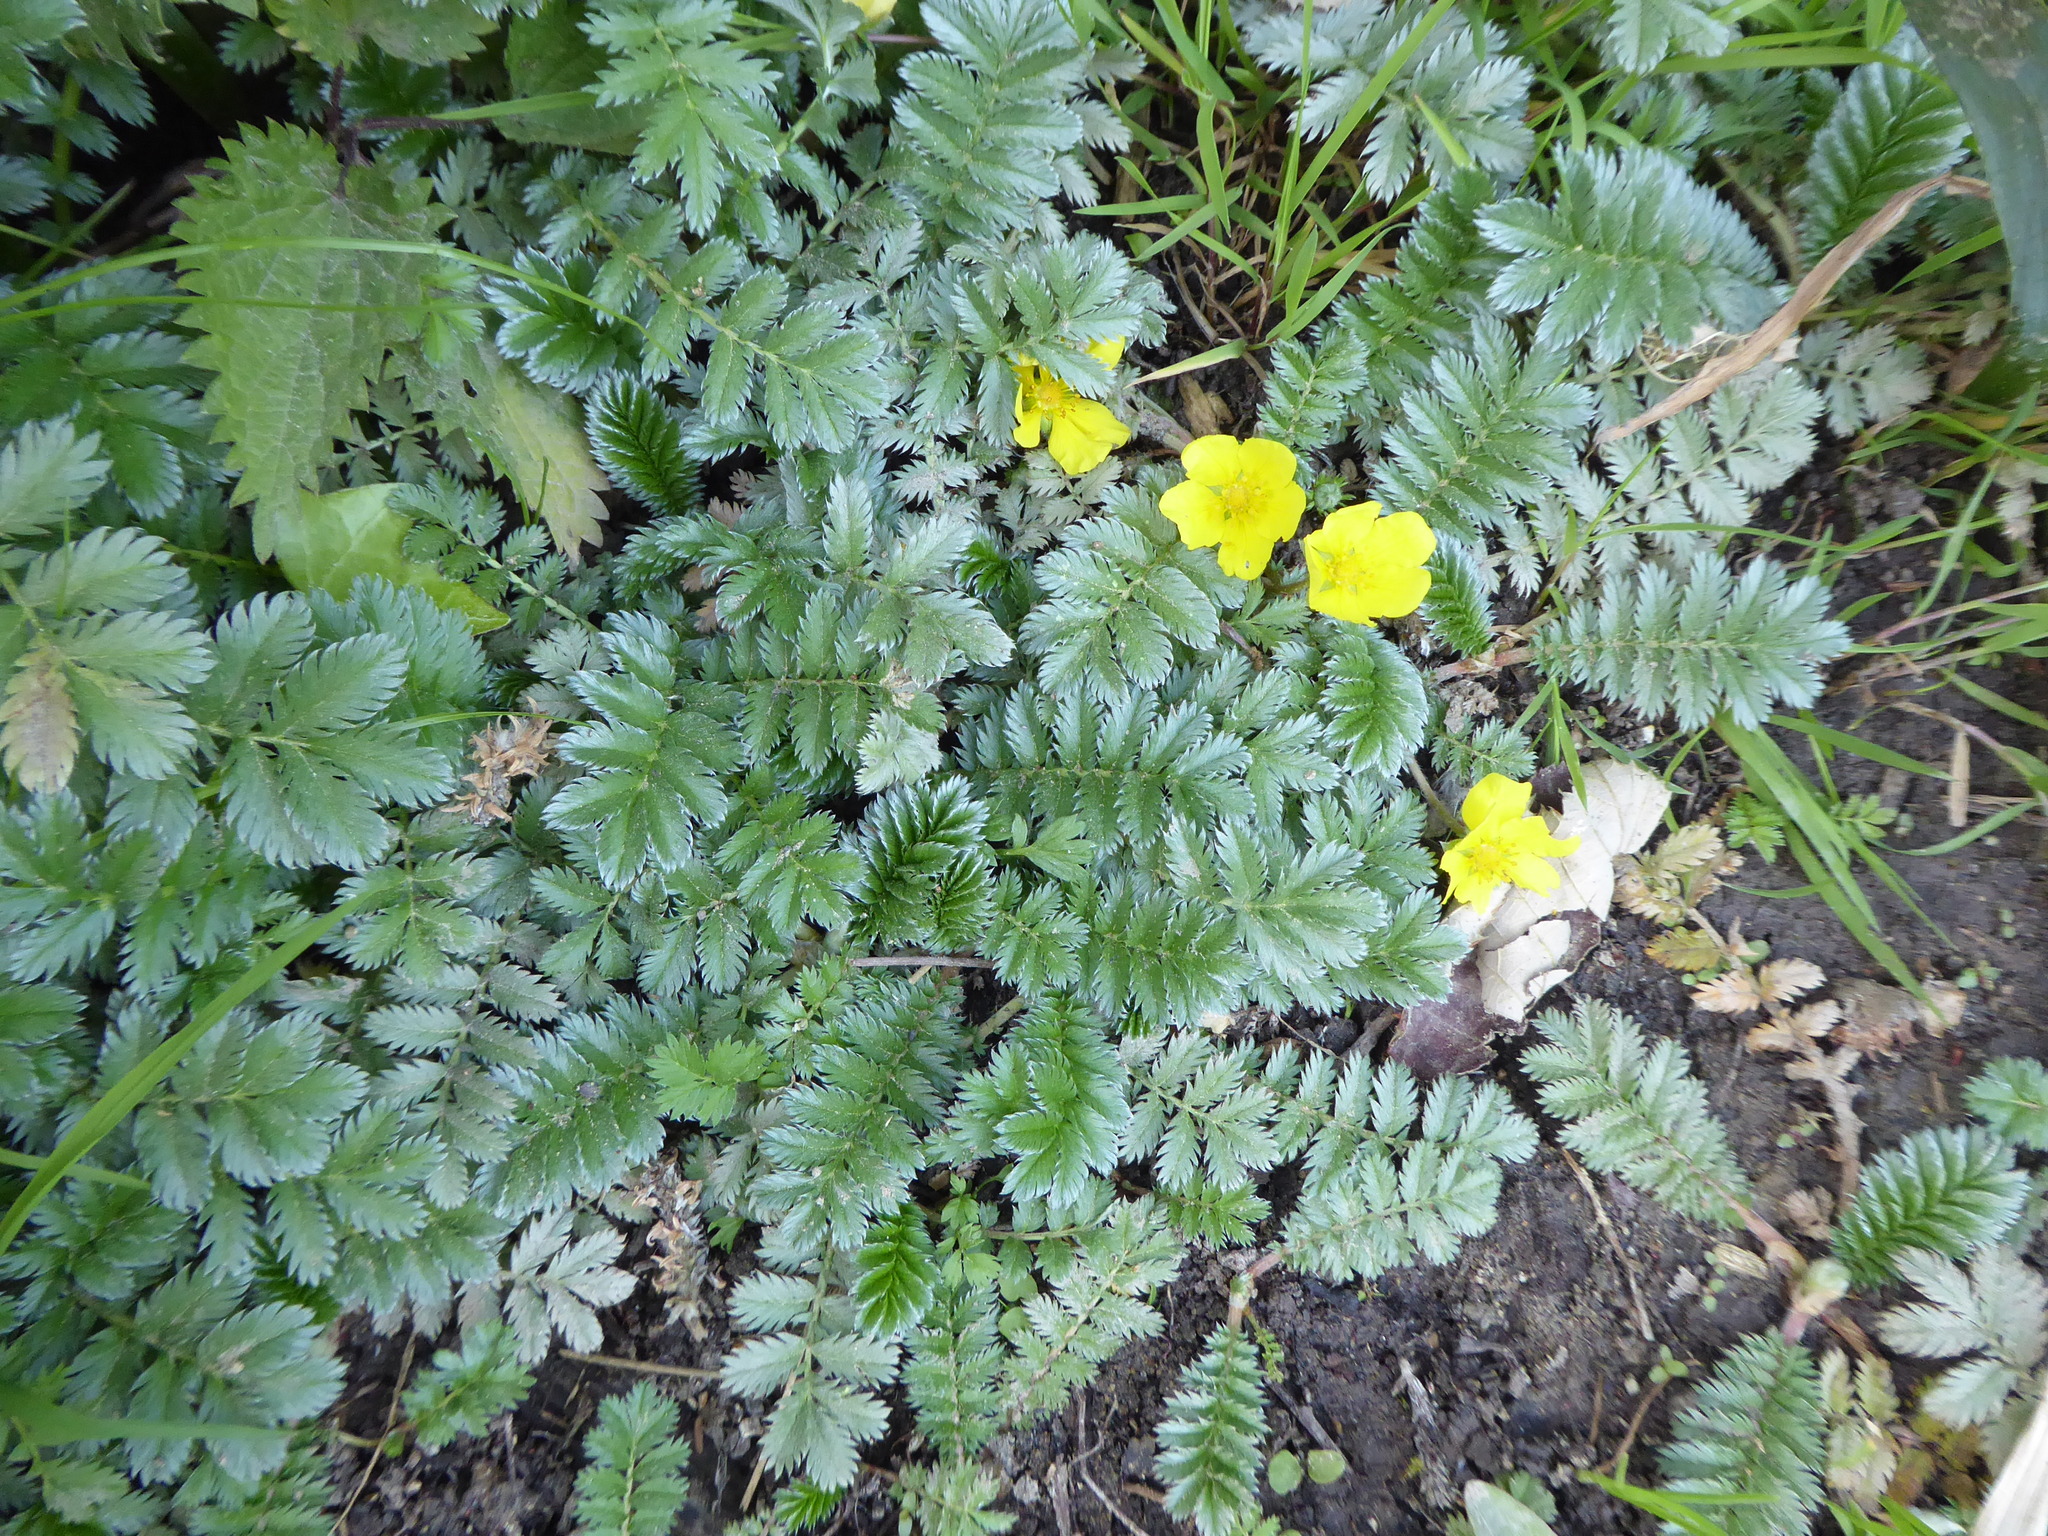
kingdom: Plantae
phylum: Tracheophyta
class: Magnoliopsida
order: Rosales
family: Rosaceae
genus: Argentina
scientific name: Argentina anserina
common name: Common silverweed
